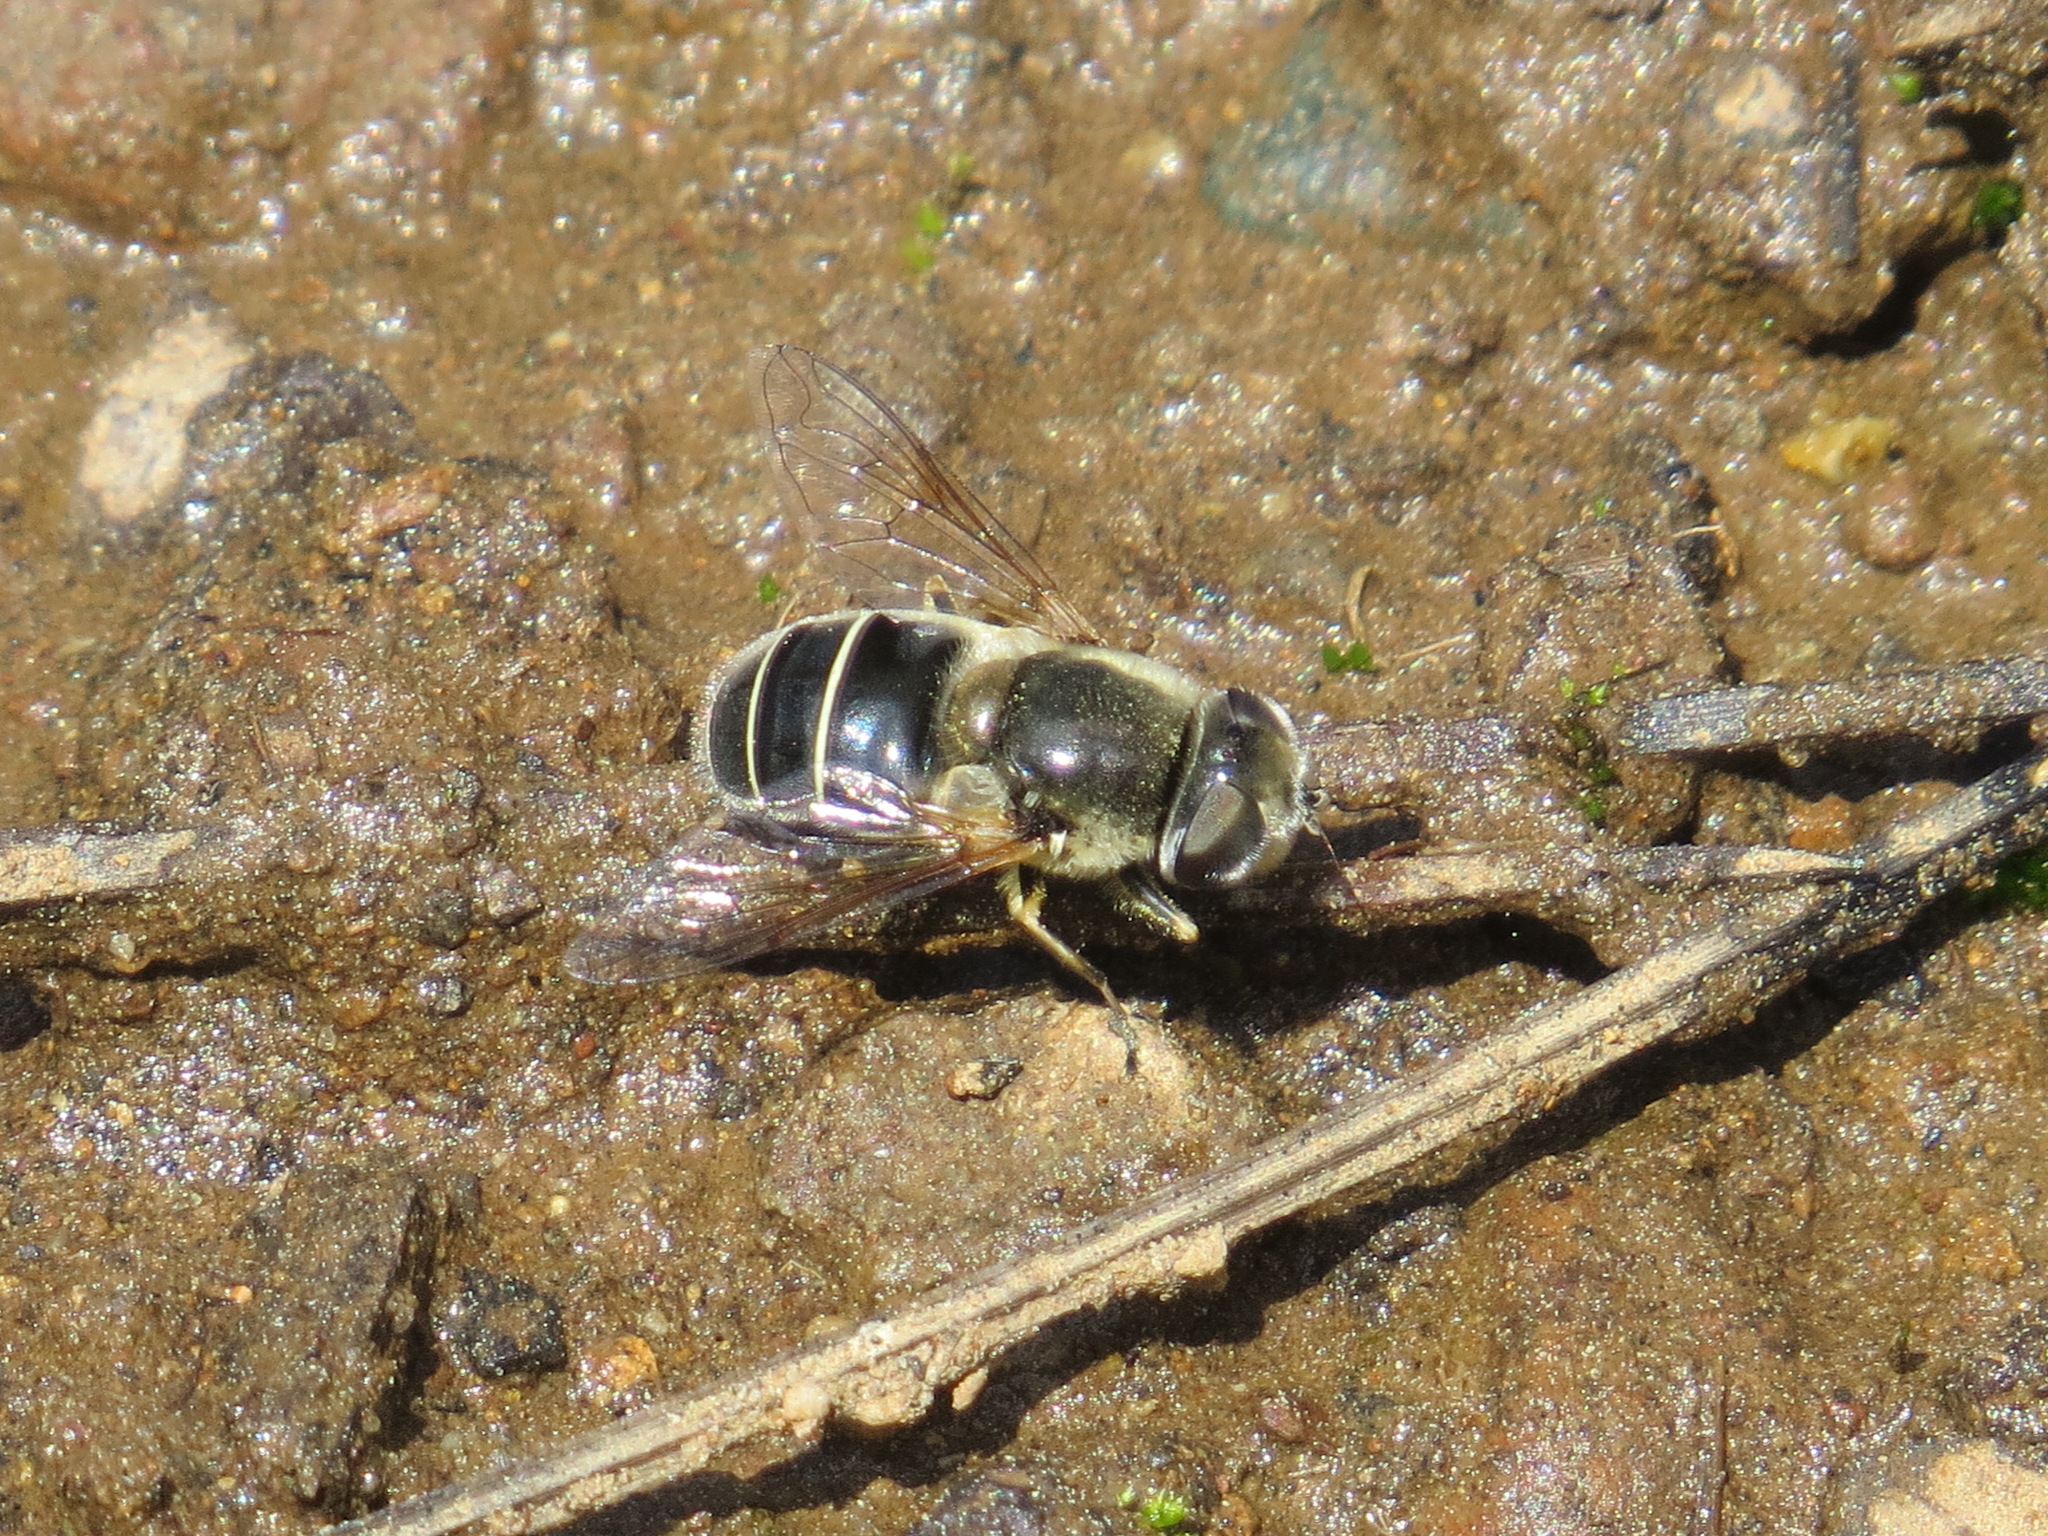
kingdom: Animalia
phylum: Arthropoda
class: Insecta
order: Diptera
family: Syrphidae
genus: Eristalis
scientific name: Eristalis hirta
